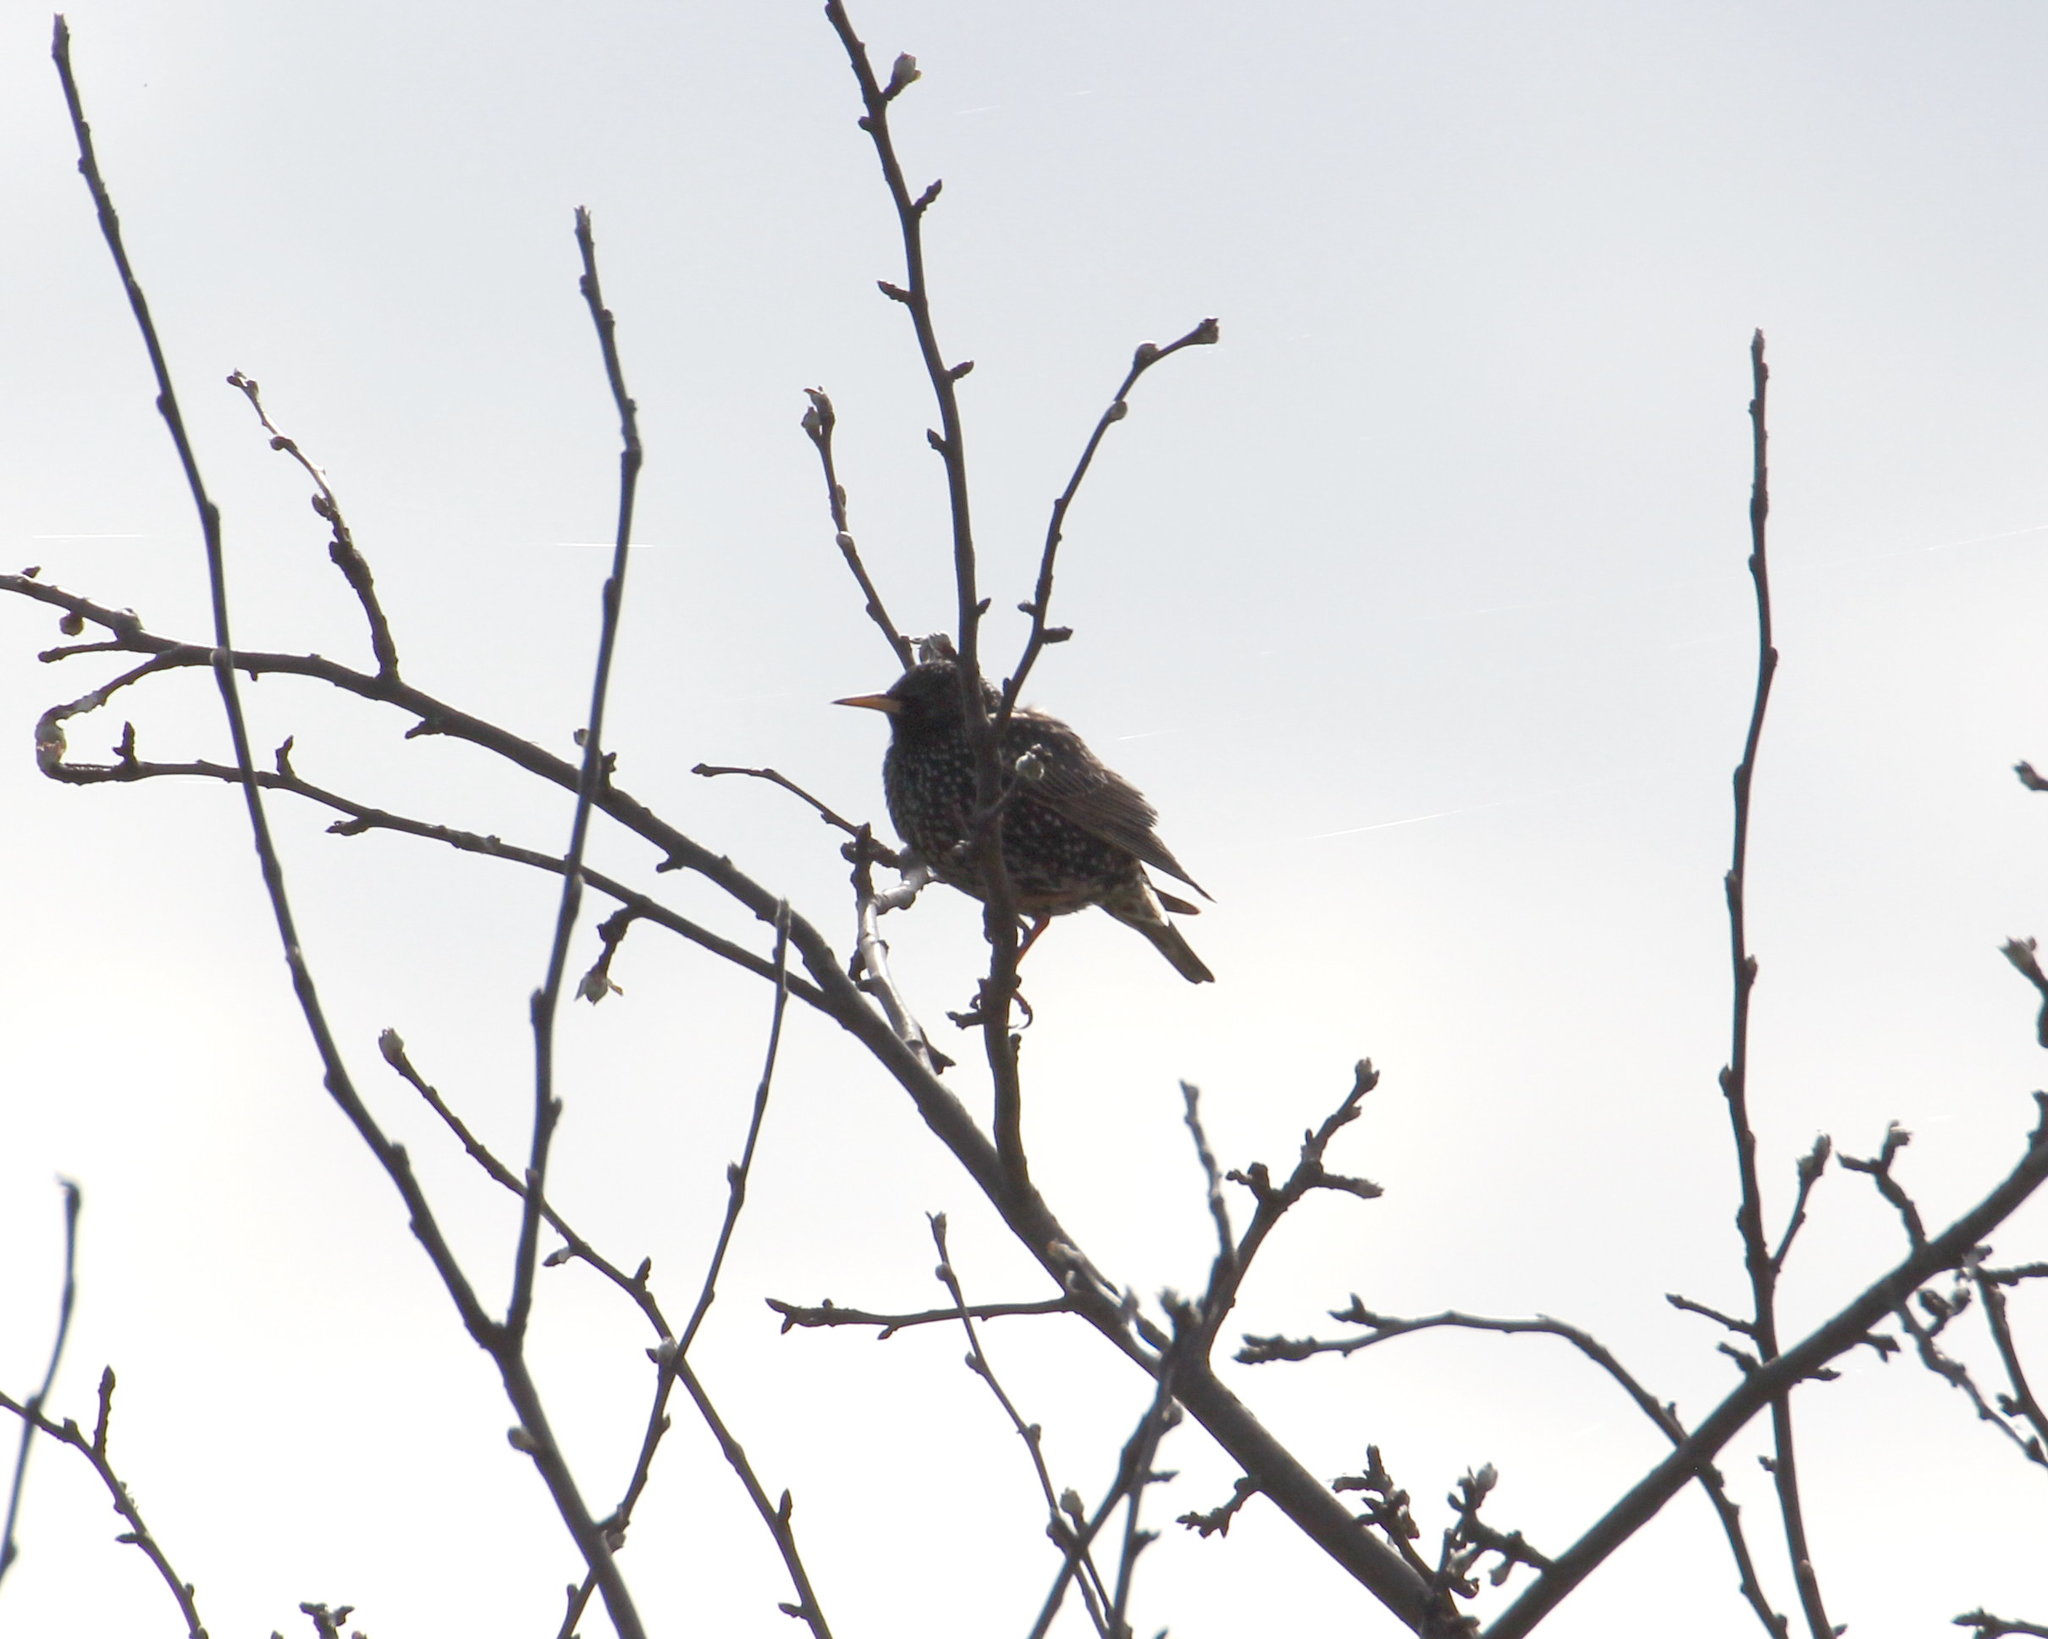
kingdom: Animalia
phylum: Chordata
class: Aves
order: Passeriformes
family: Sturnidae
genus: Sturnus
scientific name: Sturnus vulgaris
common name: Common starling
